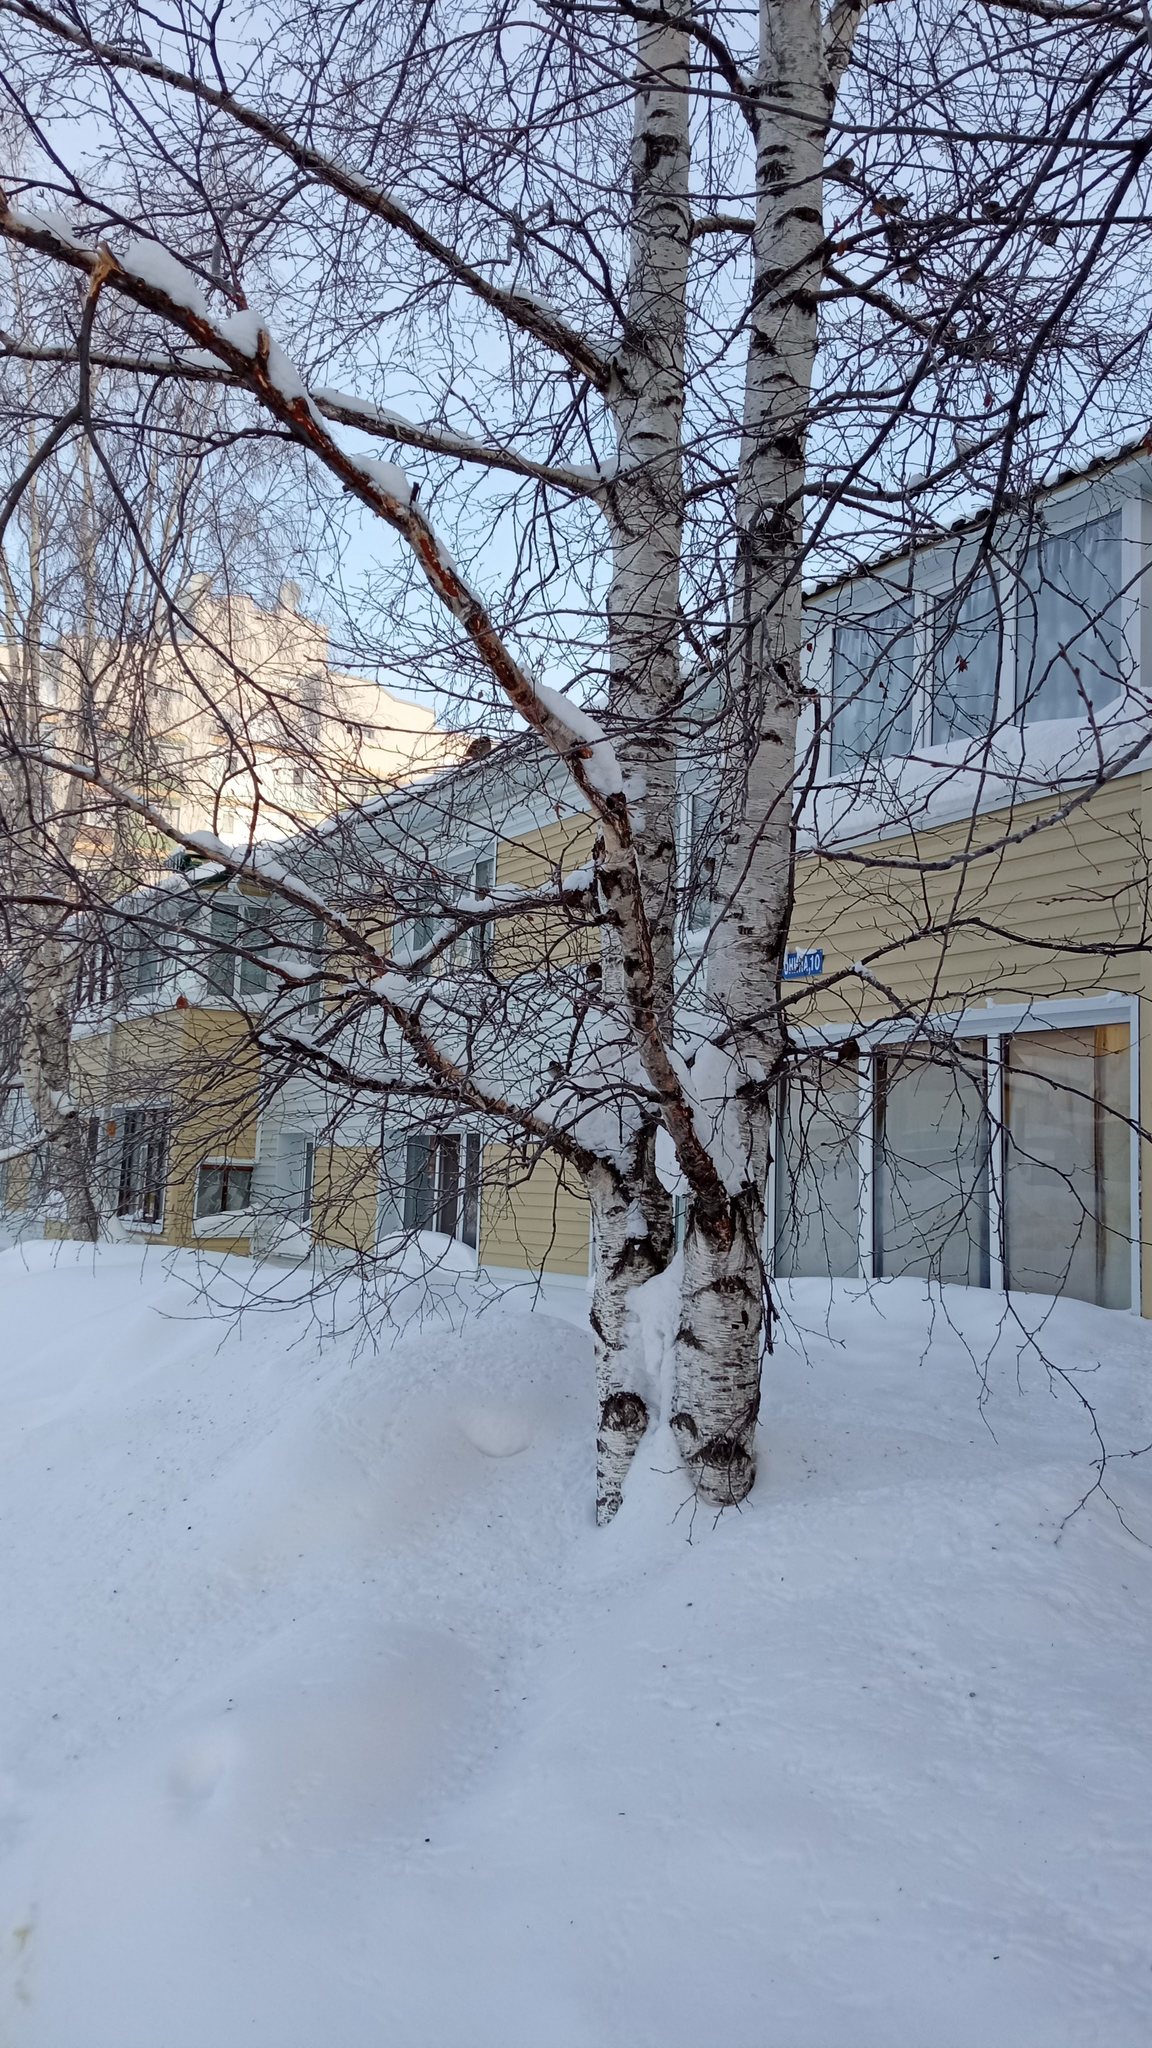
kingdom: Animalia
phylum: Chordata
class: Aves
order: Passeriformes
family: Passeridae
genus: Passer
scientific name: Passer montanus
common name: Eurasian tree sparrow
